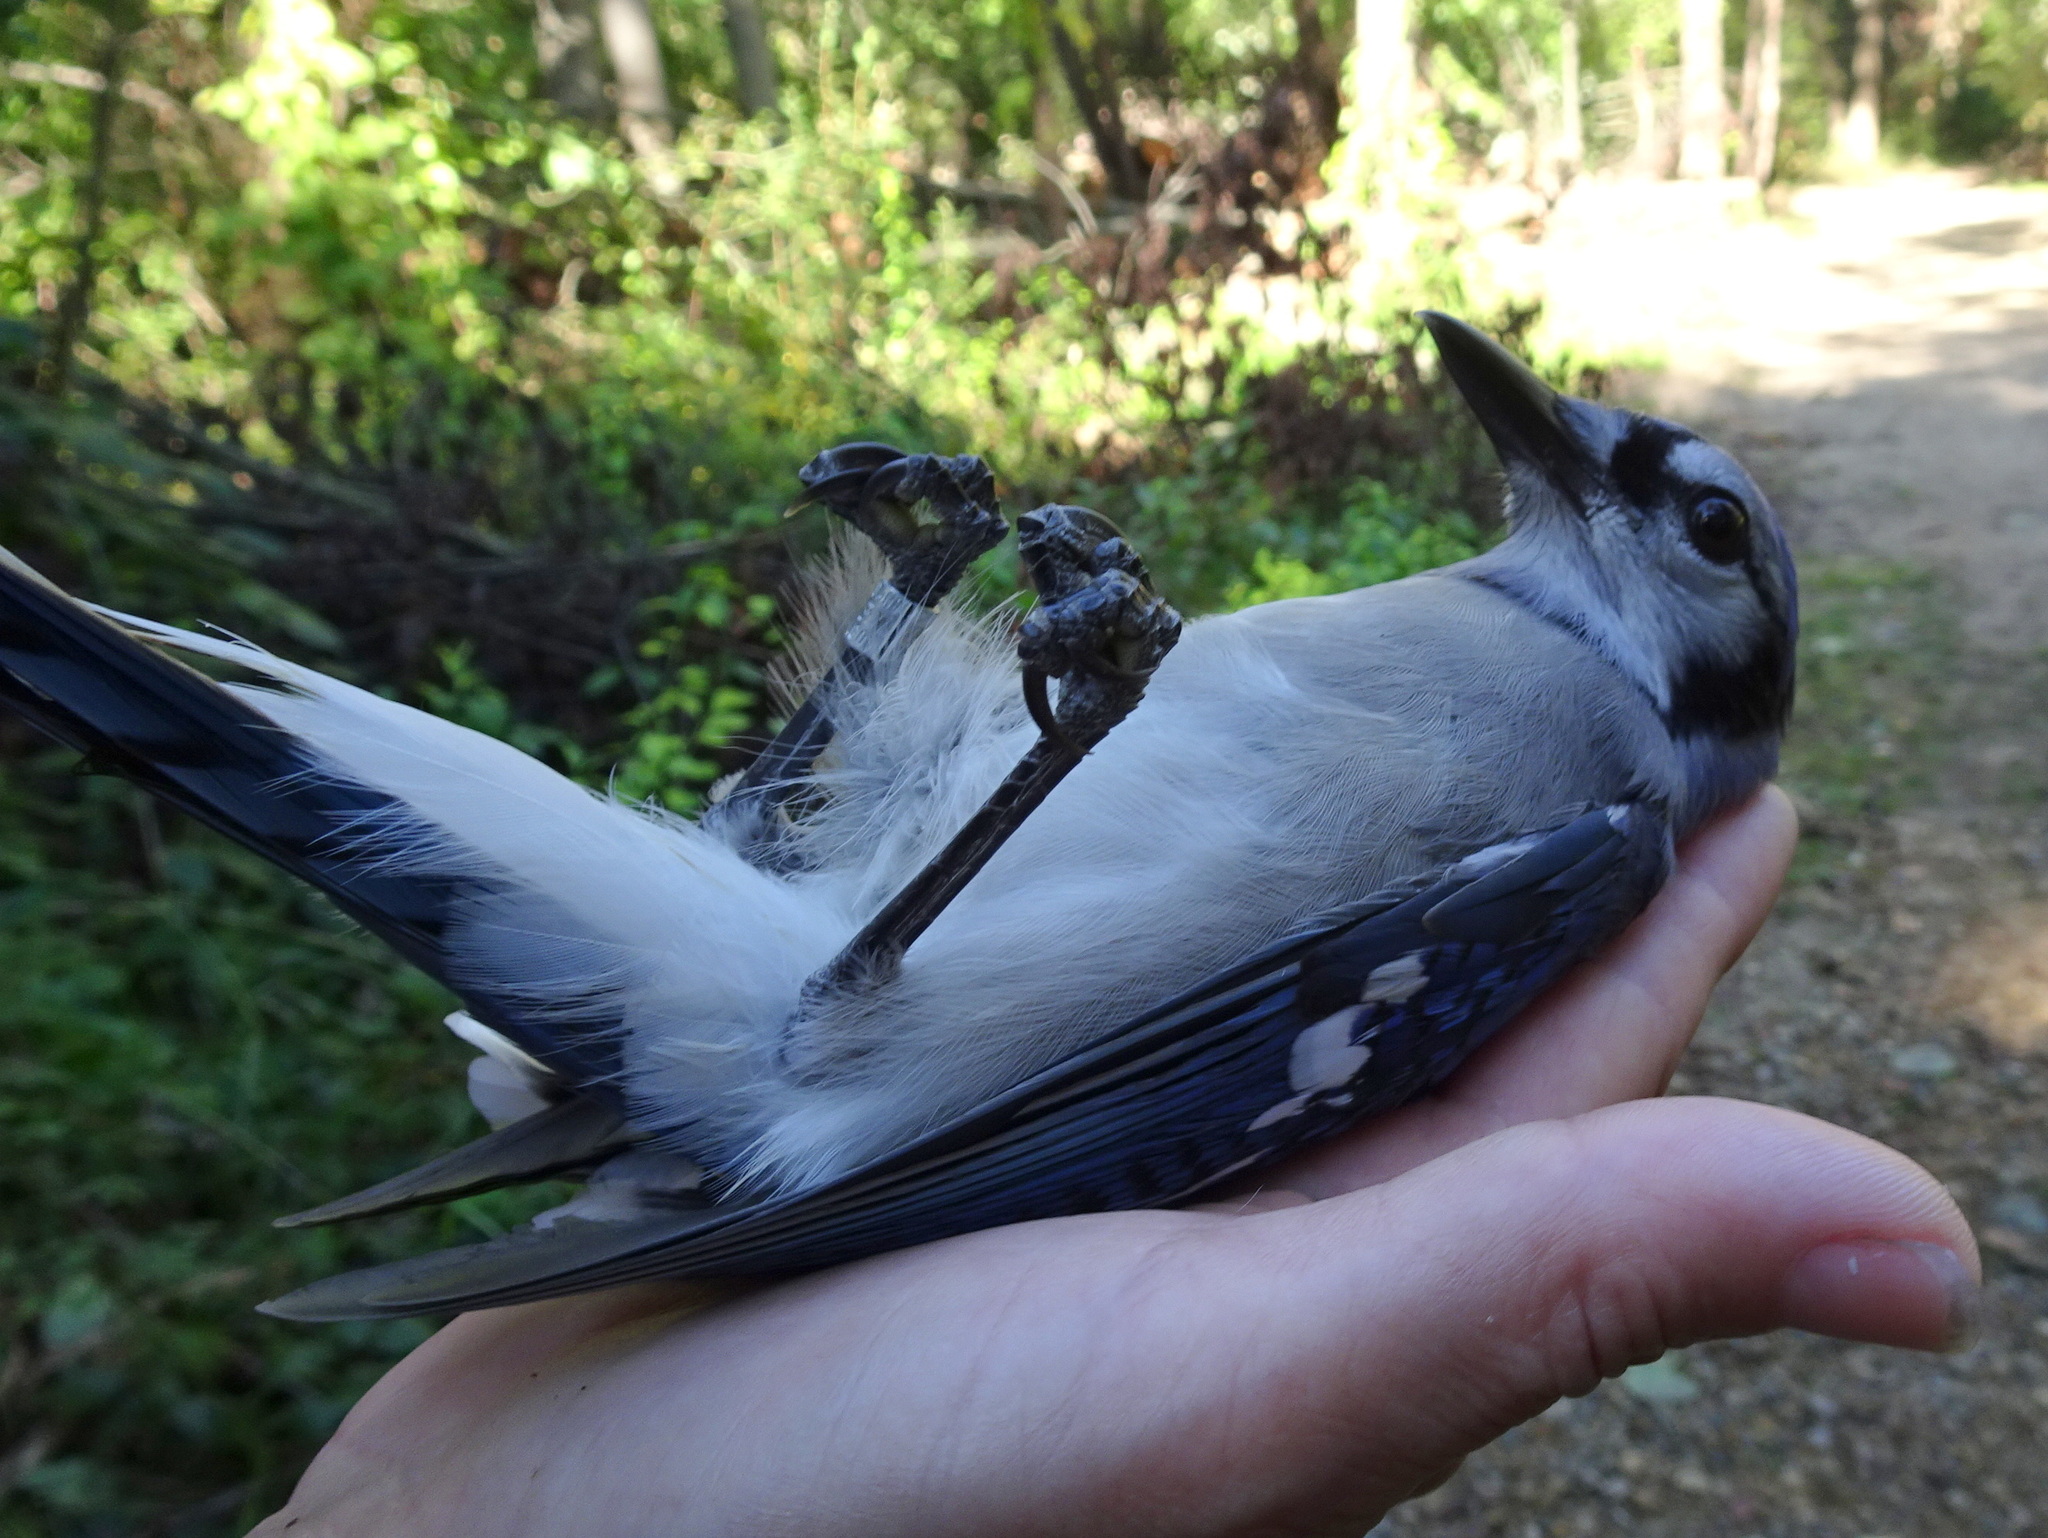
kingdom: Animalia
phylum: Chordata
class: Aves
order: Passeriformes
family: Corvidae
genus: Cyanocitta
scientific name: Cyanocitta cristata
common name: Blue jay
